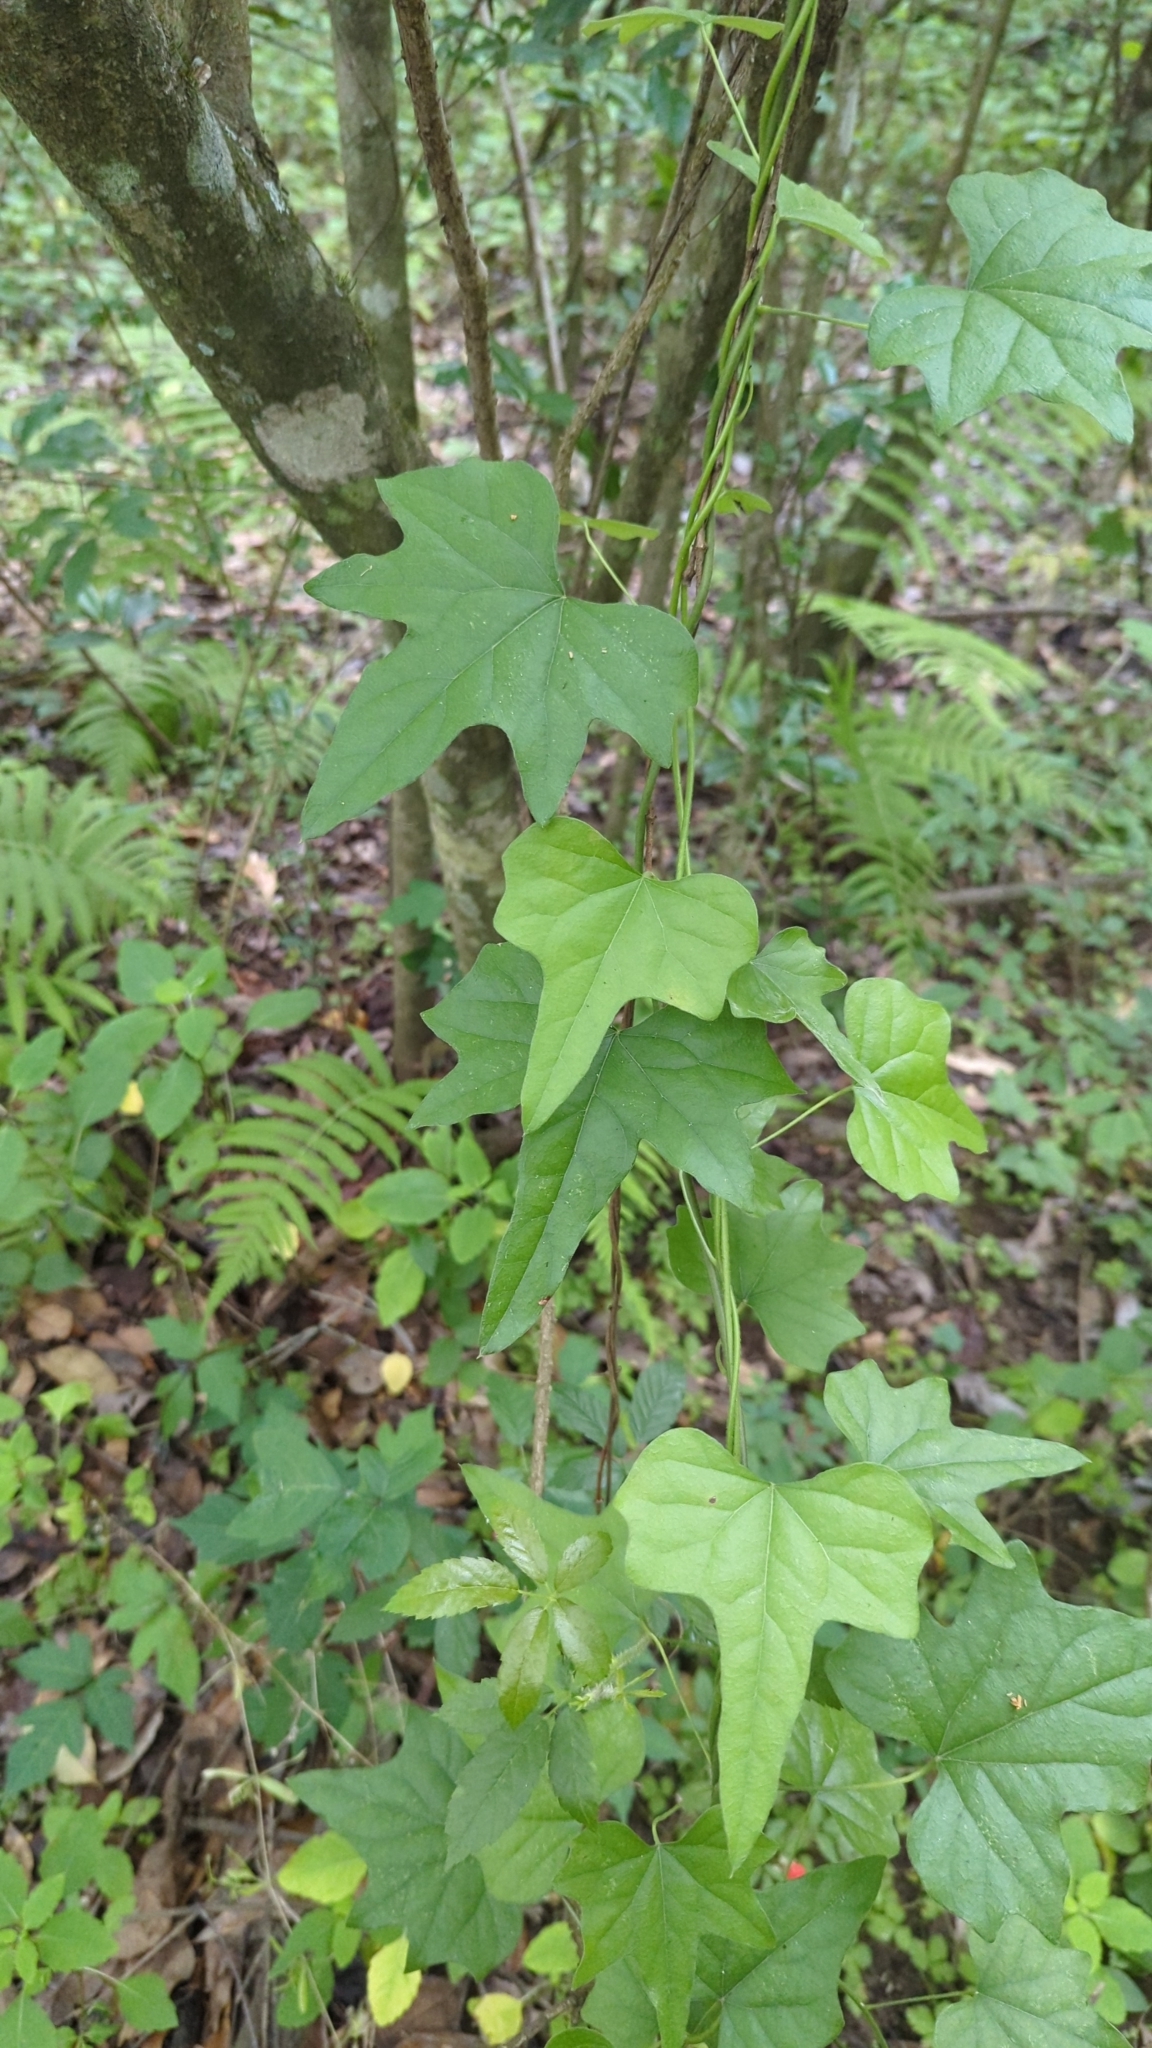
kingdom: Plantae
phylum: Tracheophyta
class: Magnoliopsida
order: Ranunculales
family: Menispermaceae
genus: Cocculus
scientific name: Cocculus carolinus
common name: Carolina moonseed
